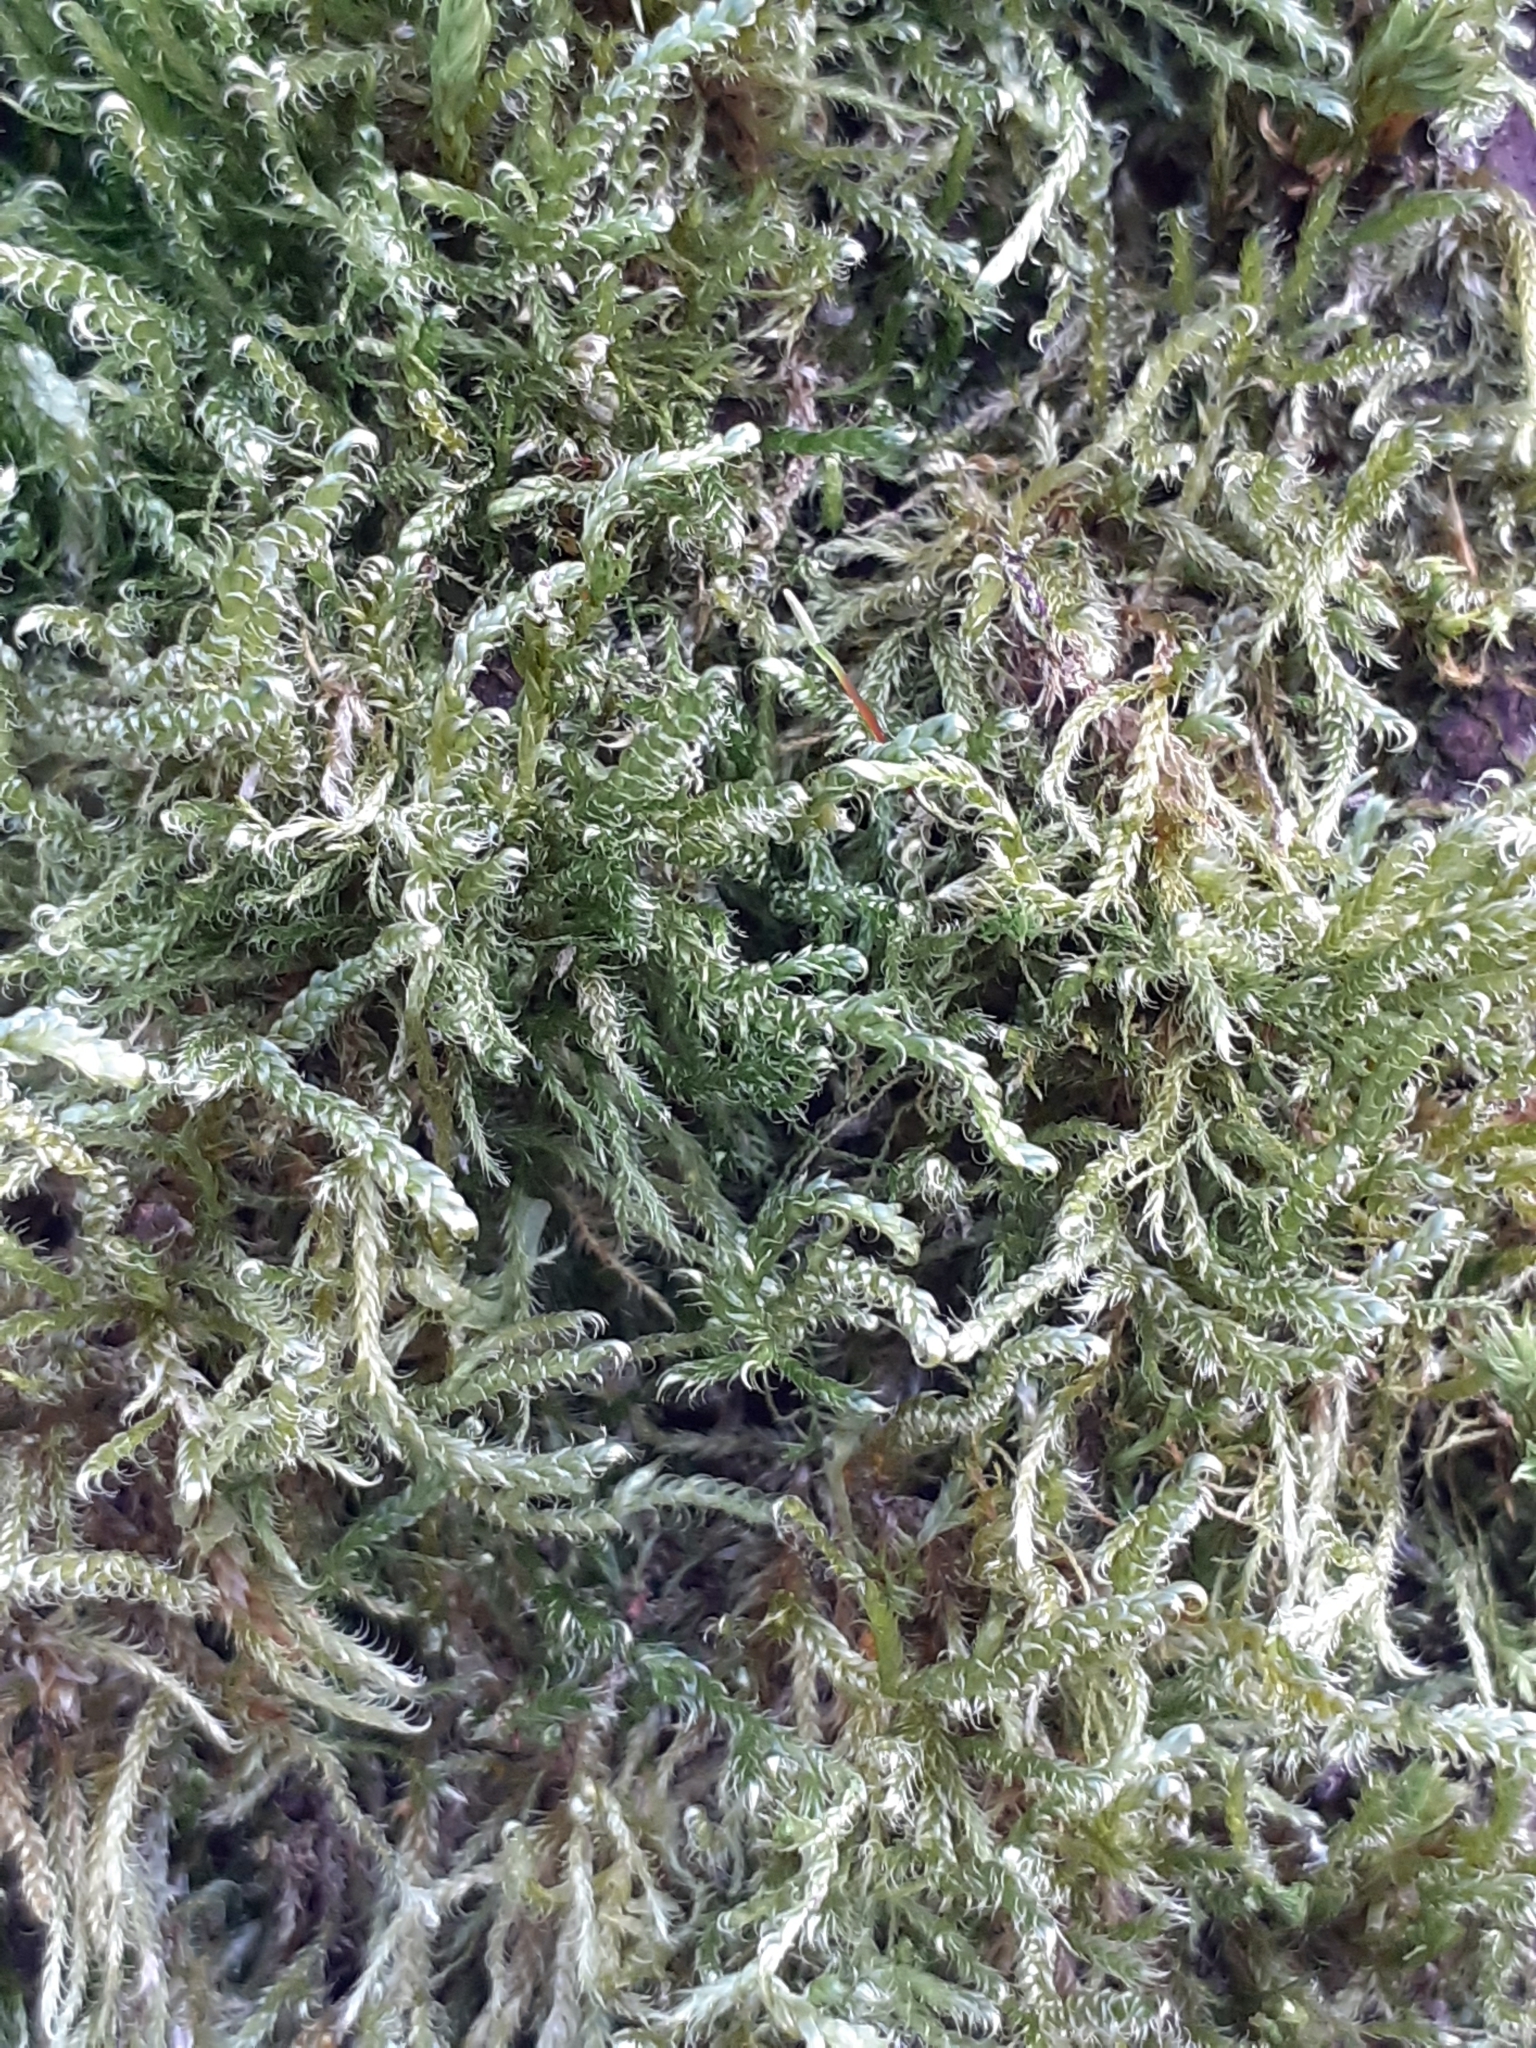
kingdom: Plantae
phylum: Bryophyta
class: Bryopsida
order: Hypnales
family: Hypnaceae
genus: Hypnum
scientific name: Hypnum cupressiforme
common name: Cypress-leaved plait-moss
